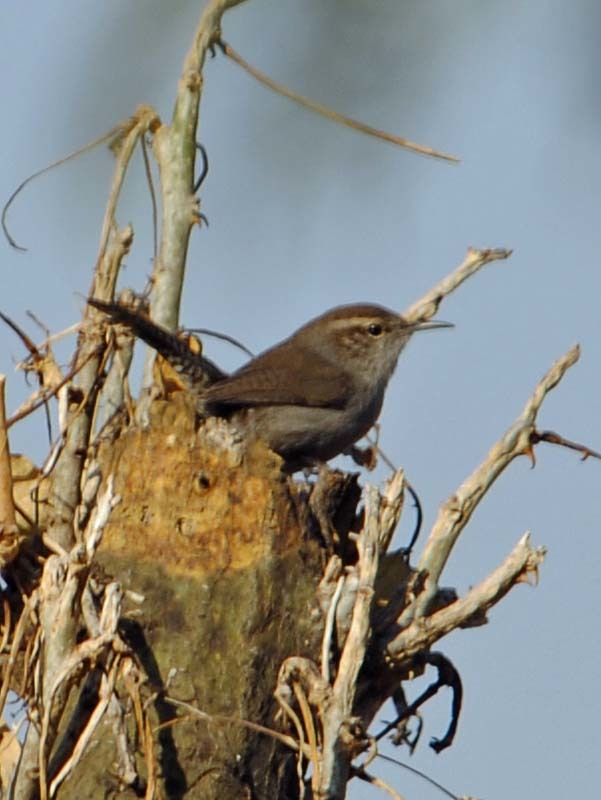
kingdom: Animalia
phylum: Chordata
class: Aves
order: Passeriformes
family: Troglodytidae
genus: Thryomanes
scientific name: Thryomanes bewickii
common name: Bewick's wren
